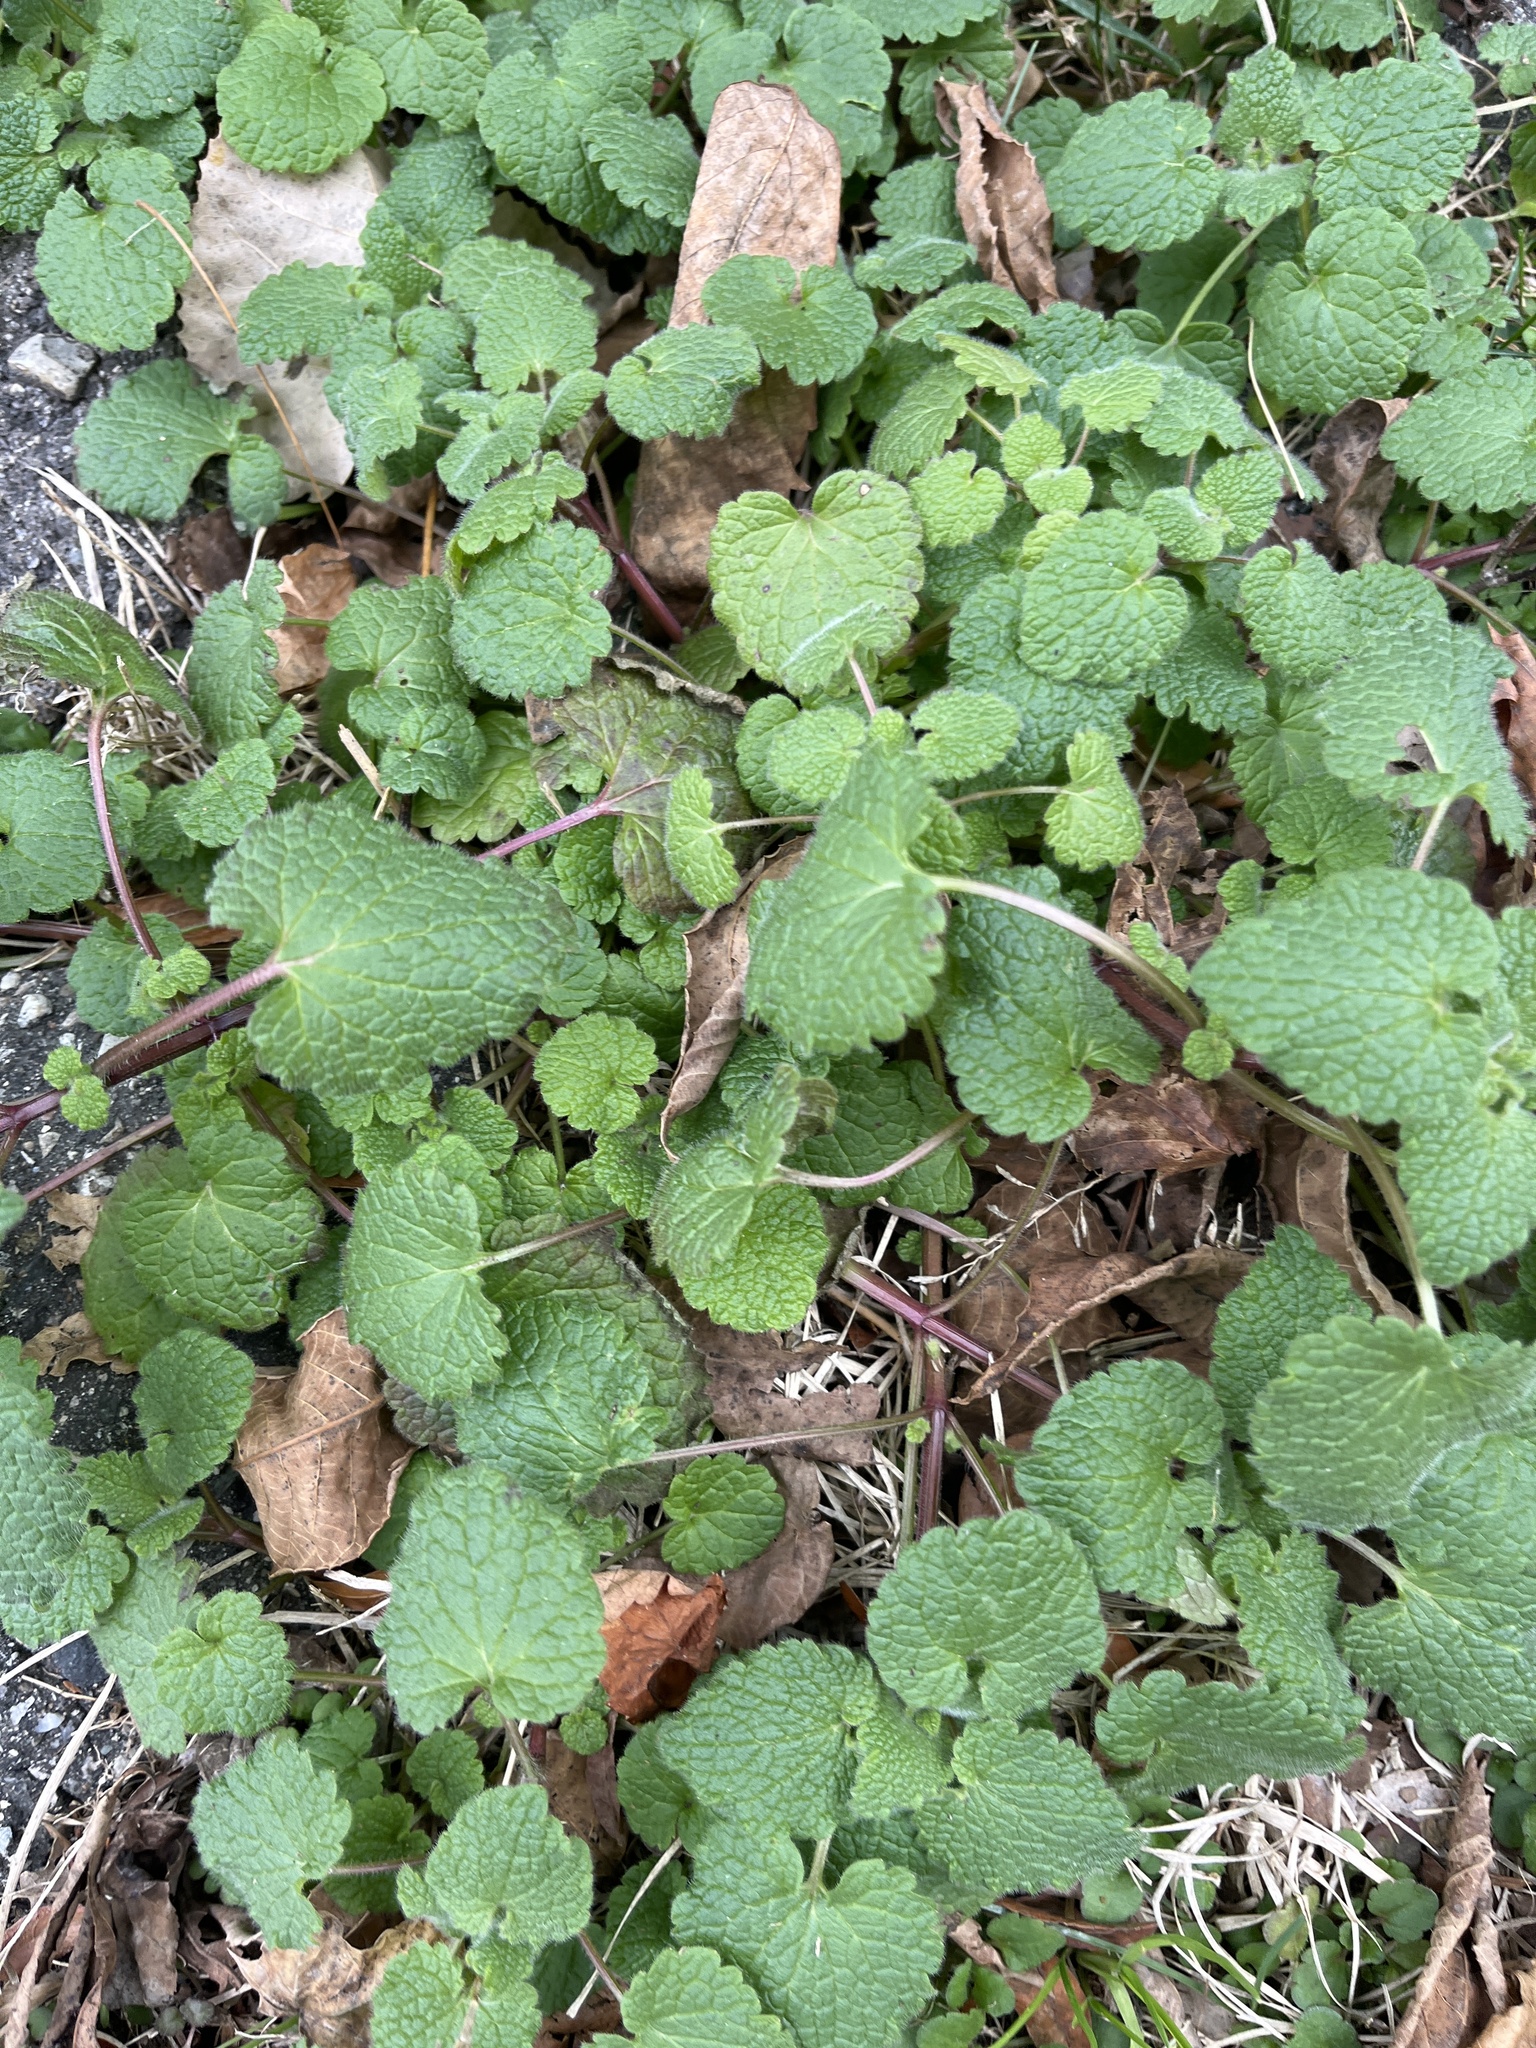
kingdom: Plantae
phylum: Tracheophyta
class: Magnoliopsida
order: Lamiales
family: Lamiaceae
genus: Lamium
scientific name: Lamium purpureum
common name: Red dead-nettle
